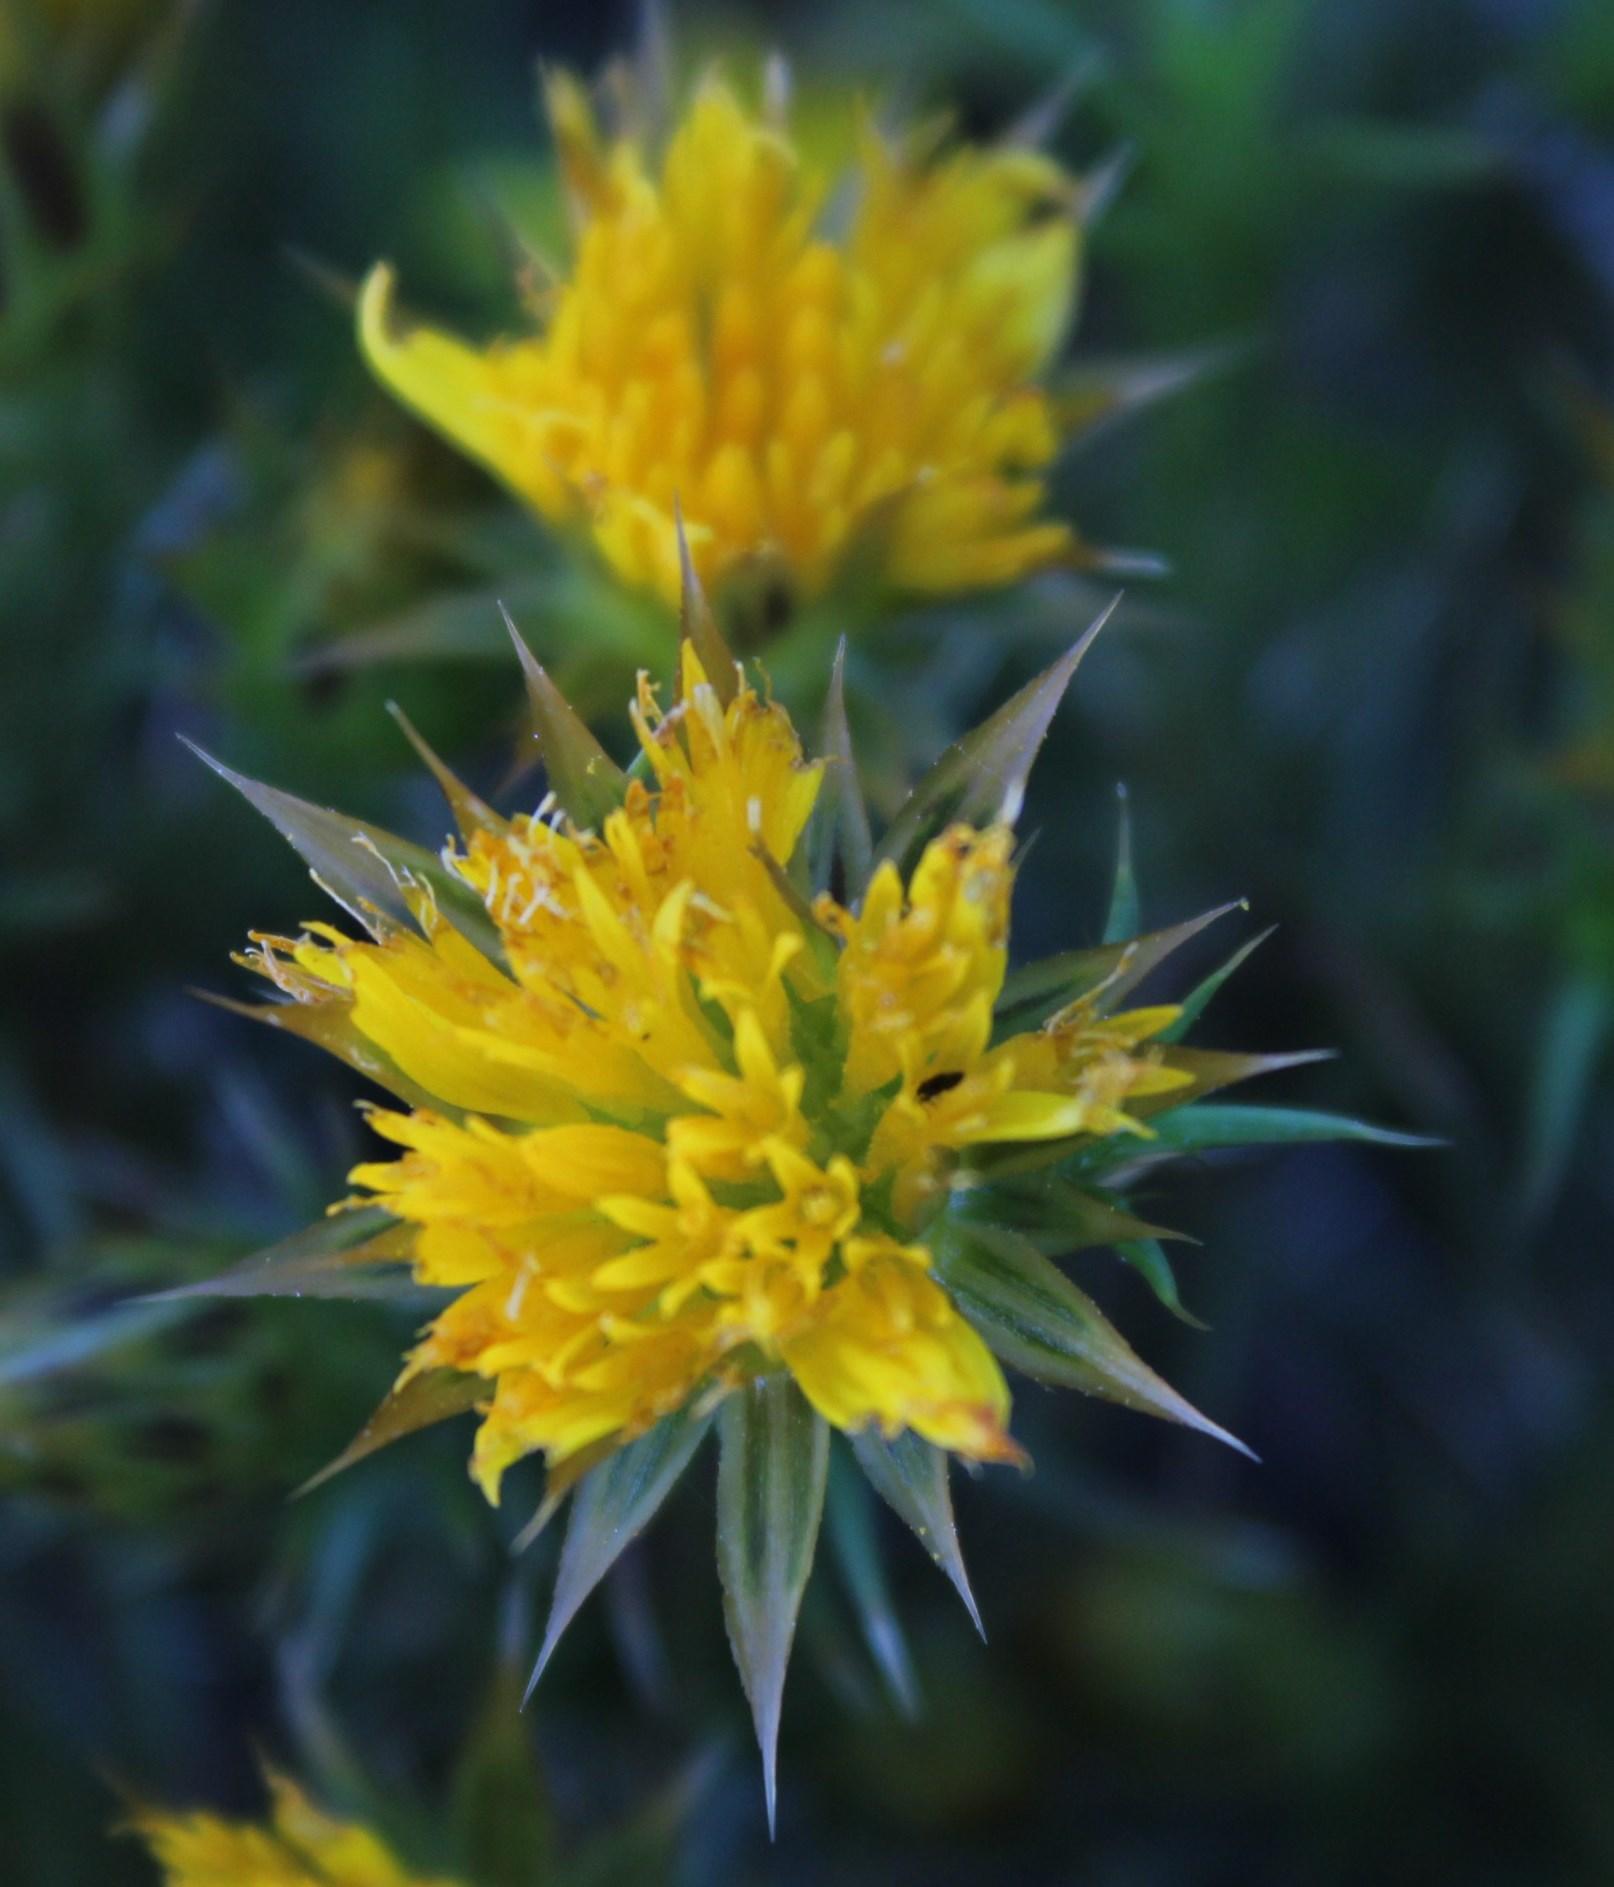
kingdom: Plantae
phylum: Tracheophyta
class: Magnoliopsida
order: Asterales
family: Asteraceae
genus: Cullumia
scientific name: Cullumia bisulca
